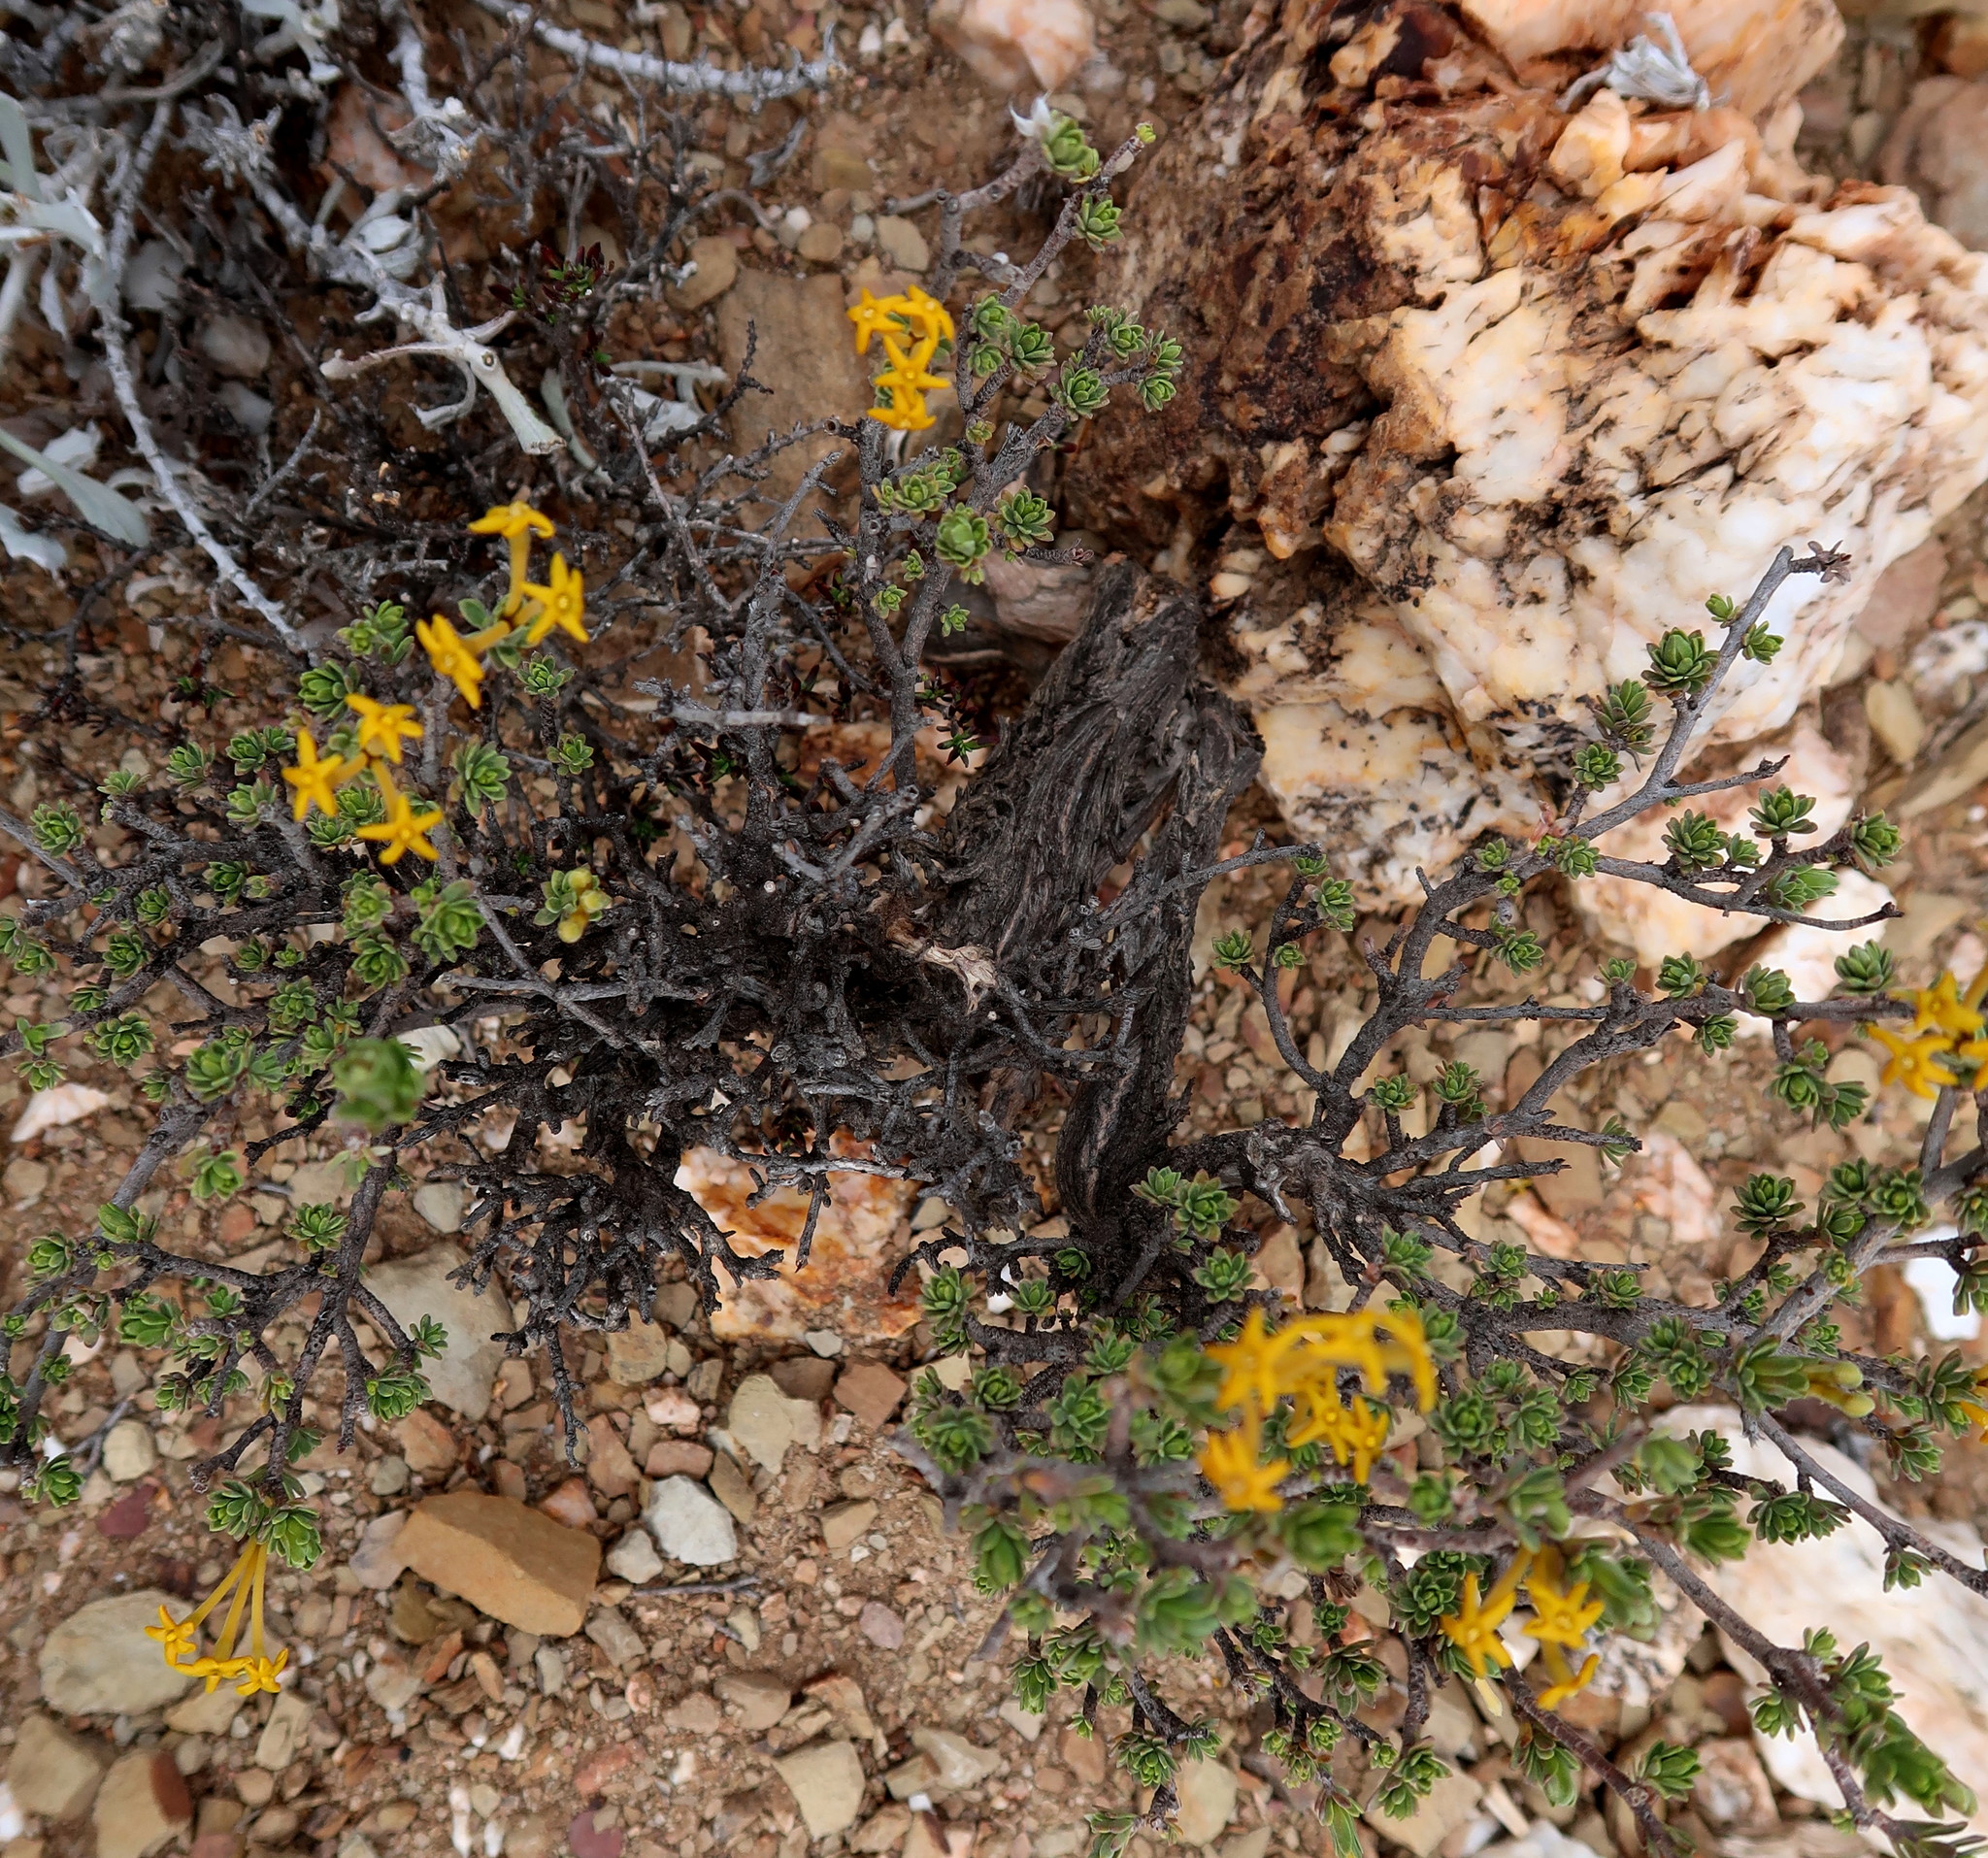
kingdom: Plantae
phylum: Tracheophyta
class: Magnoliopsida
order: Malvales
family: Thymelaeaceae
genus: Gnidia
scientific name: Gnidia deserticola
